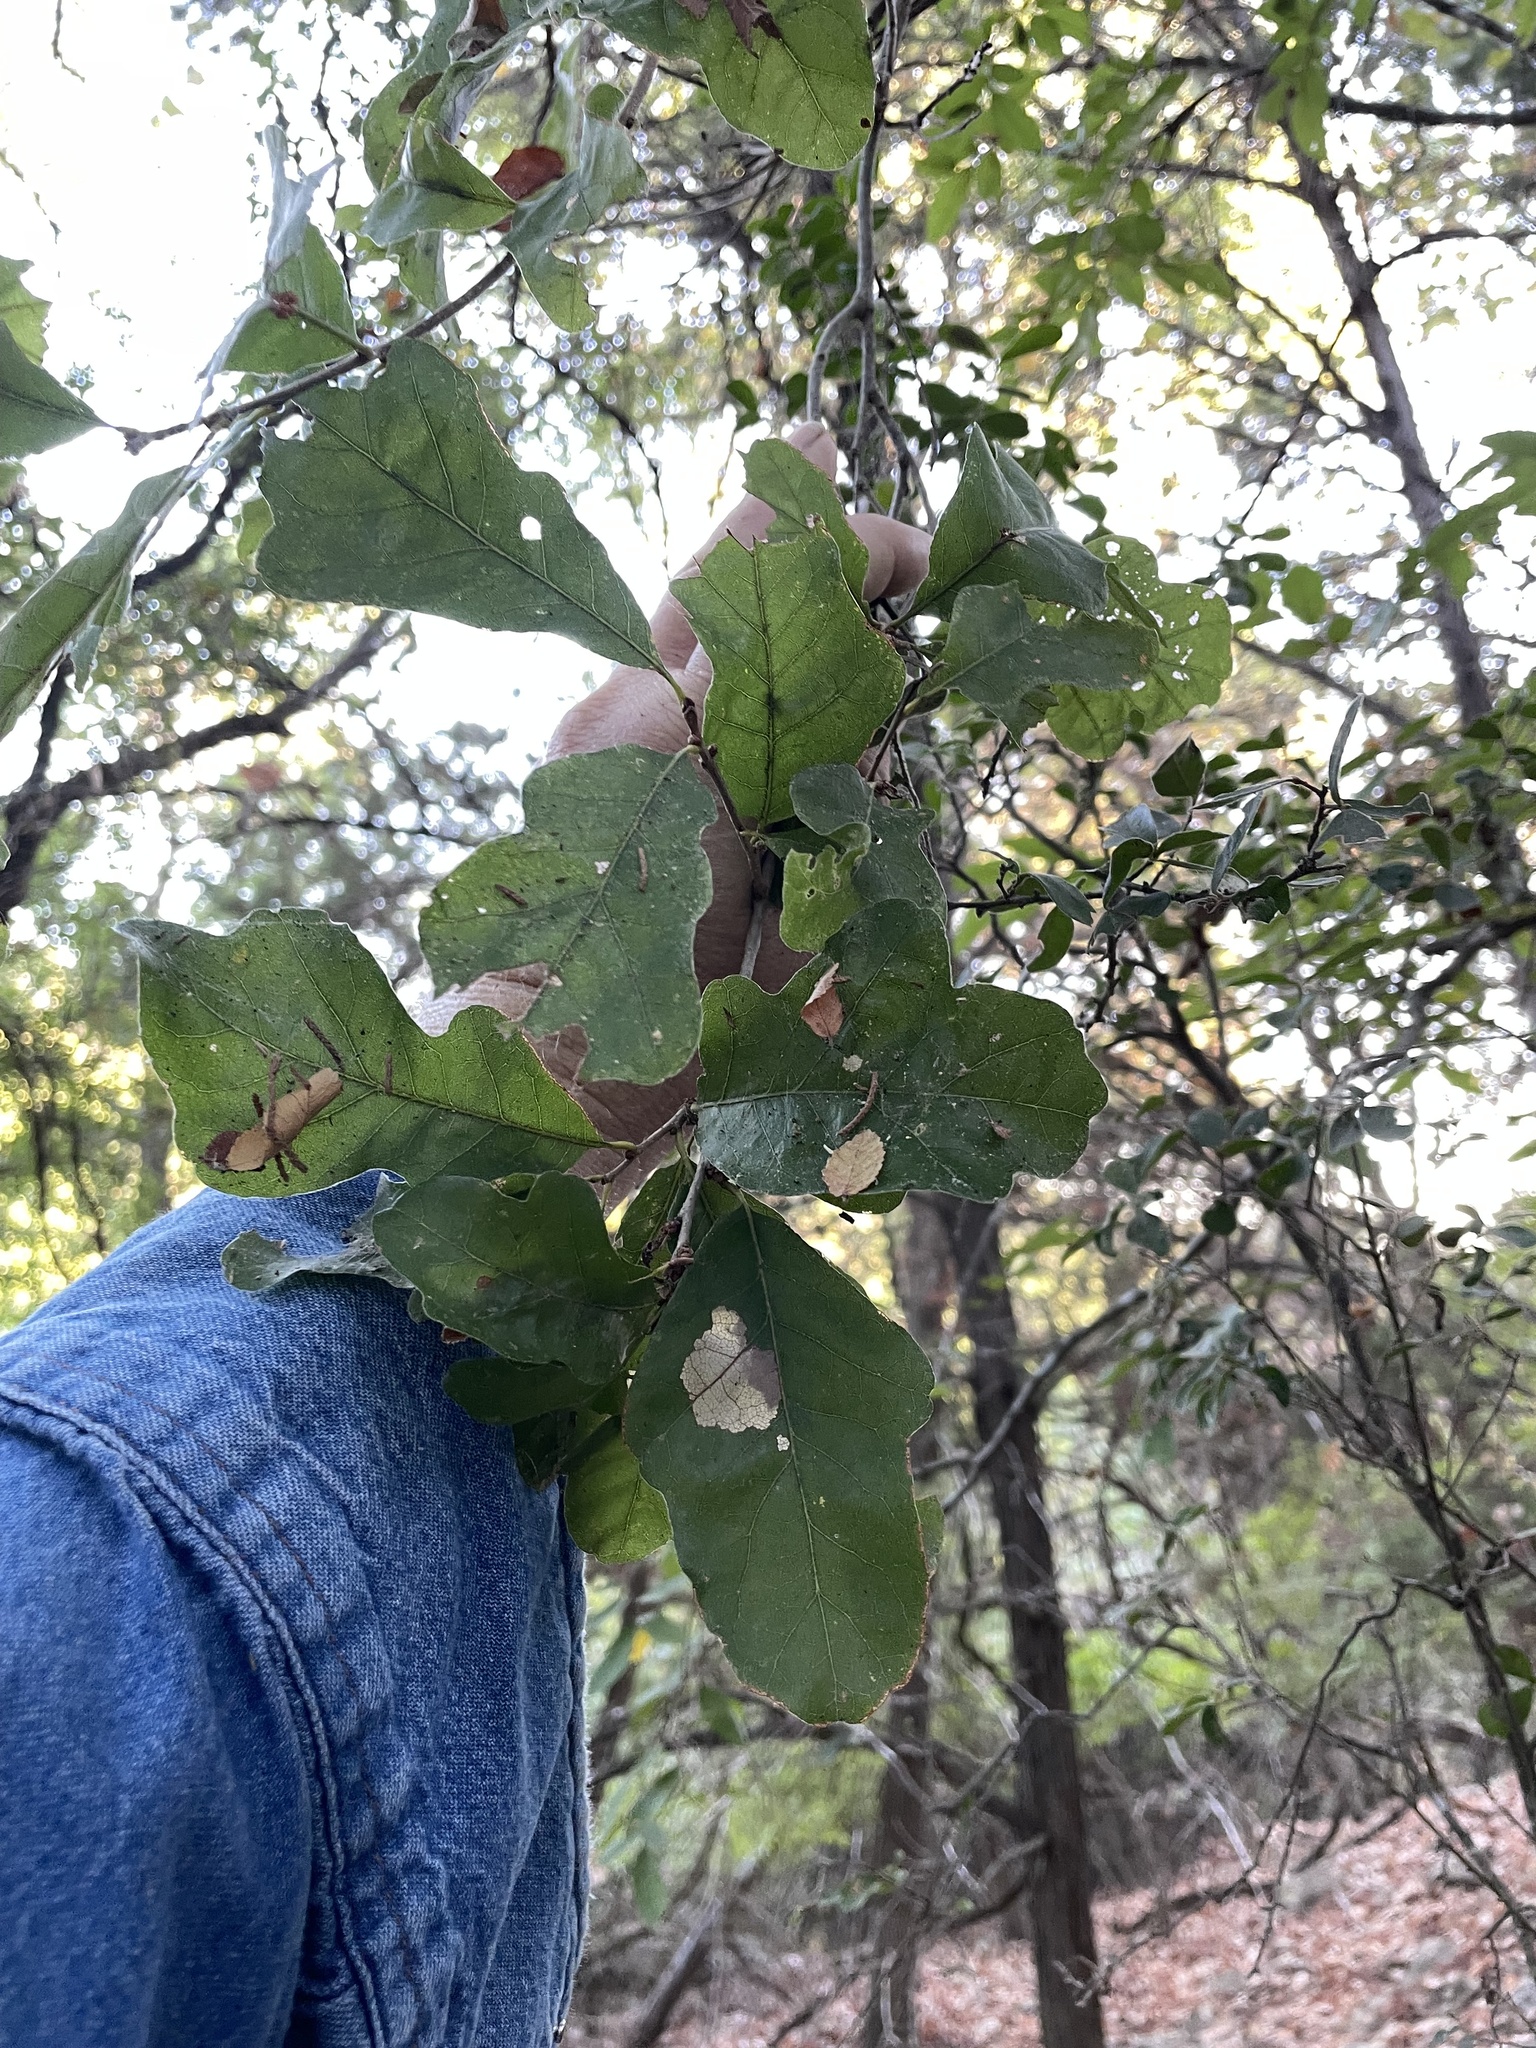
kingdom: Plantae
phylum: Tracheophyta
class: Magnoliopsida
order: Fagales
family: Fagaceae
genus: Quercus
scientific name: Quercus sinuata
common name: Durand oak
